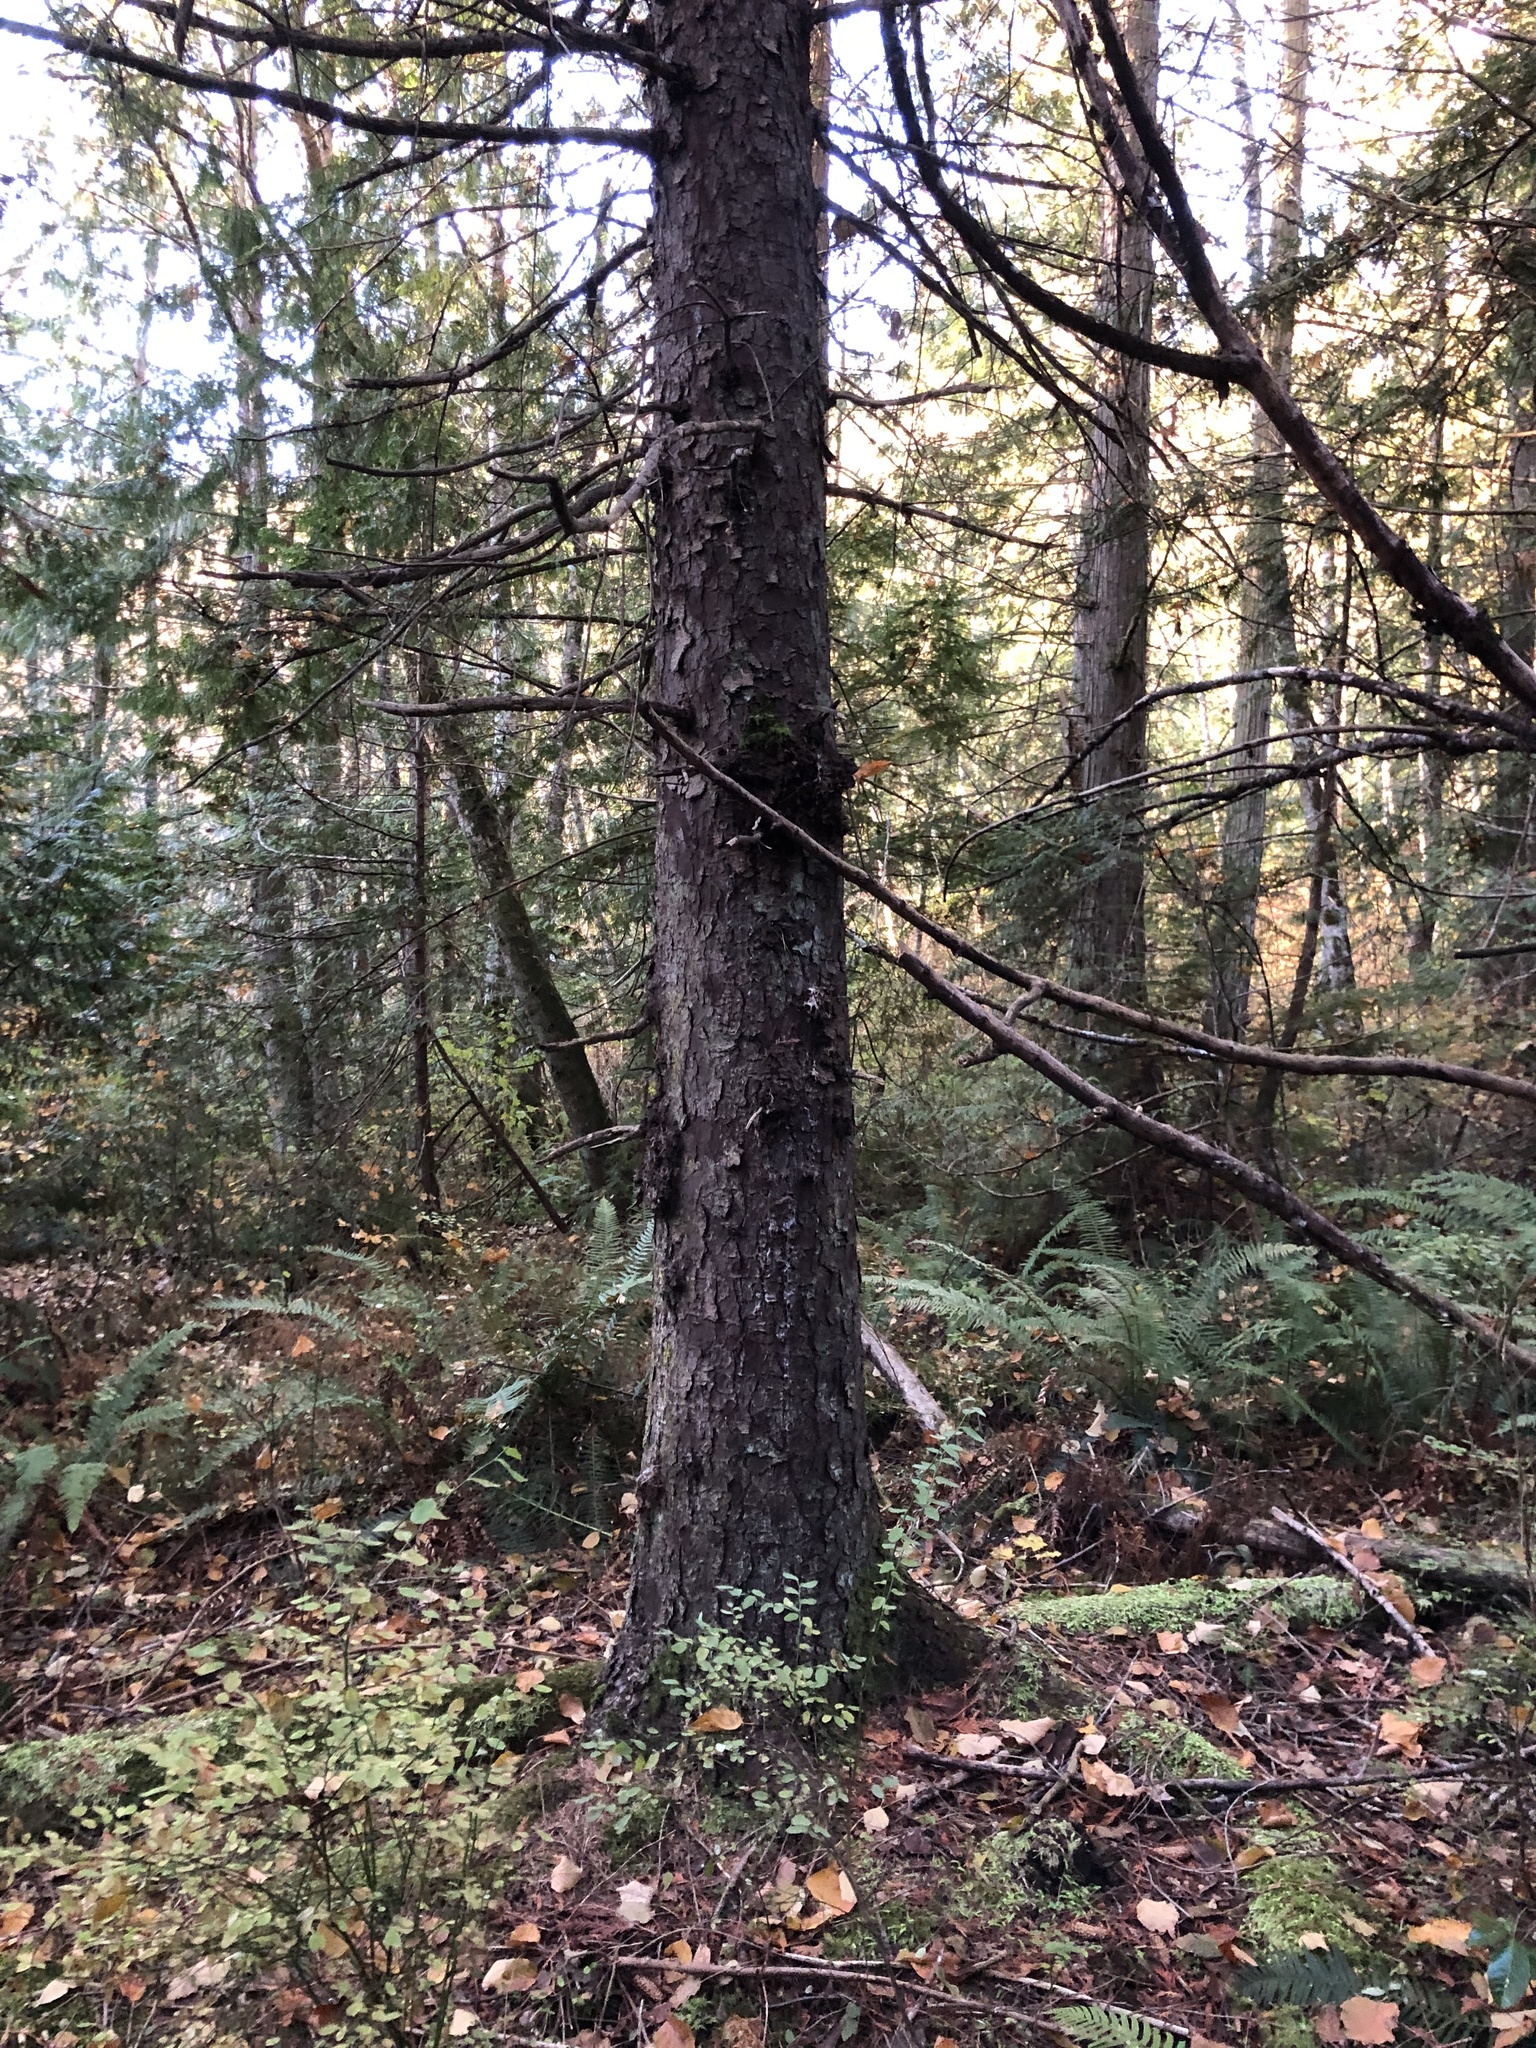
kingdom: Plantae
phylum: Tracheophyta
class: Pinopsida
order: Pinales
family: Pinaceae
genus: Picea
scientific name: Picea sitchensis
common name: Sitka spruce
